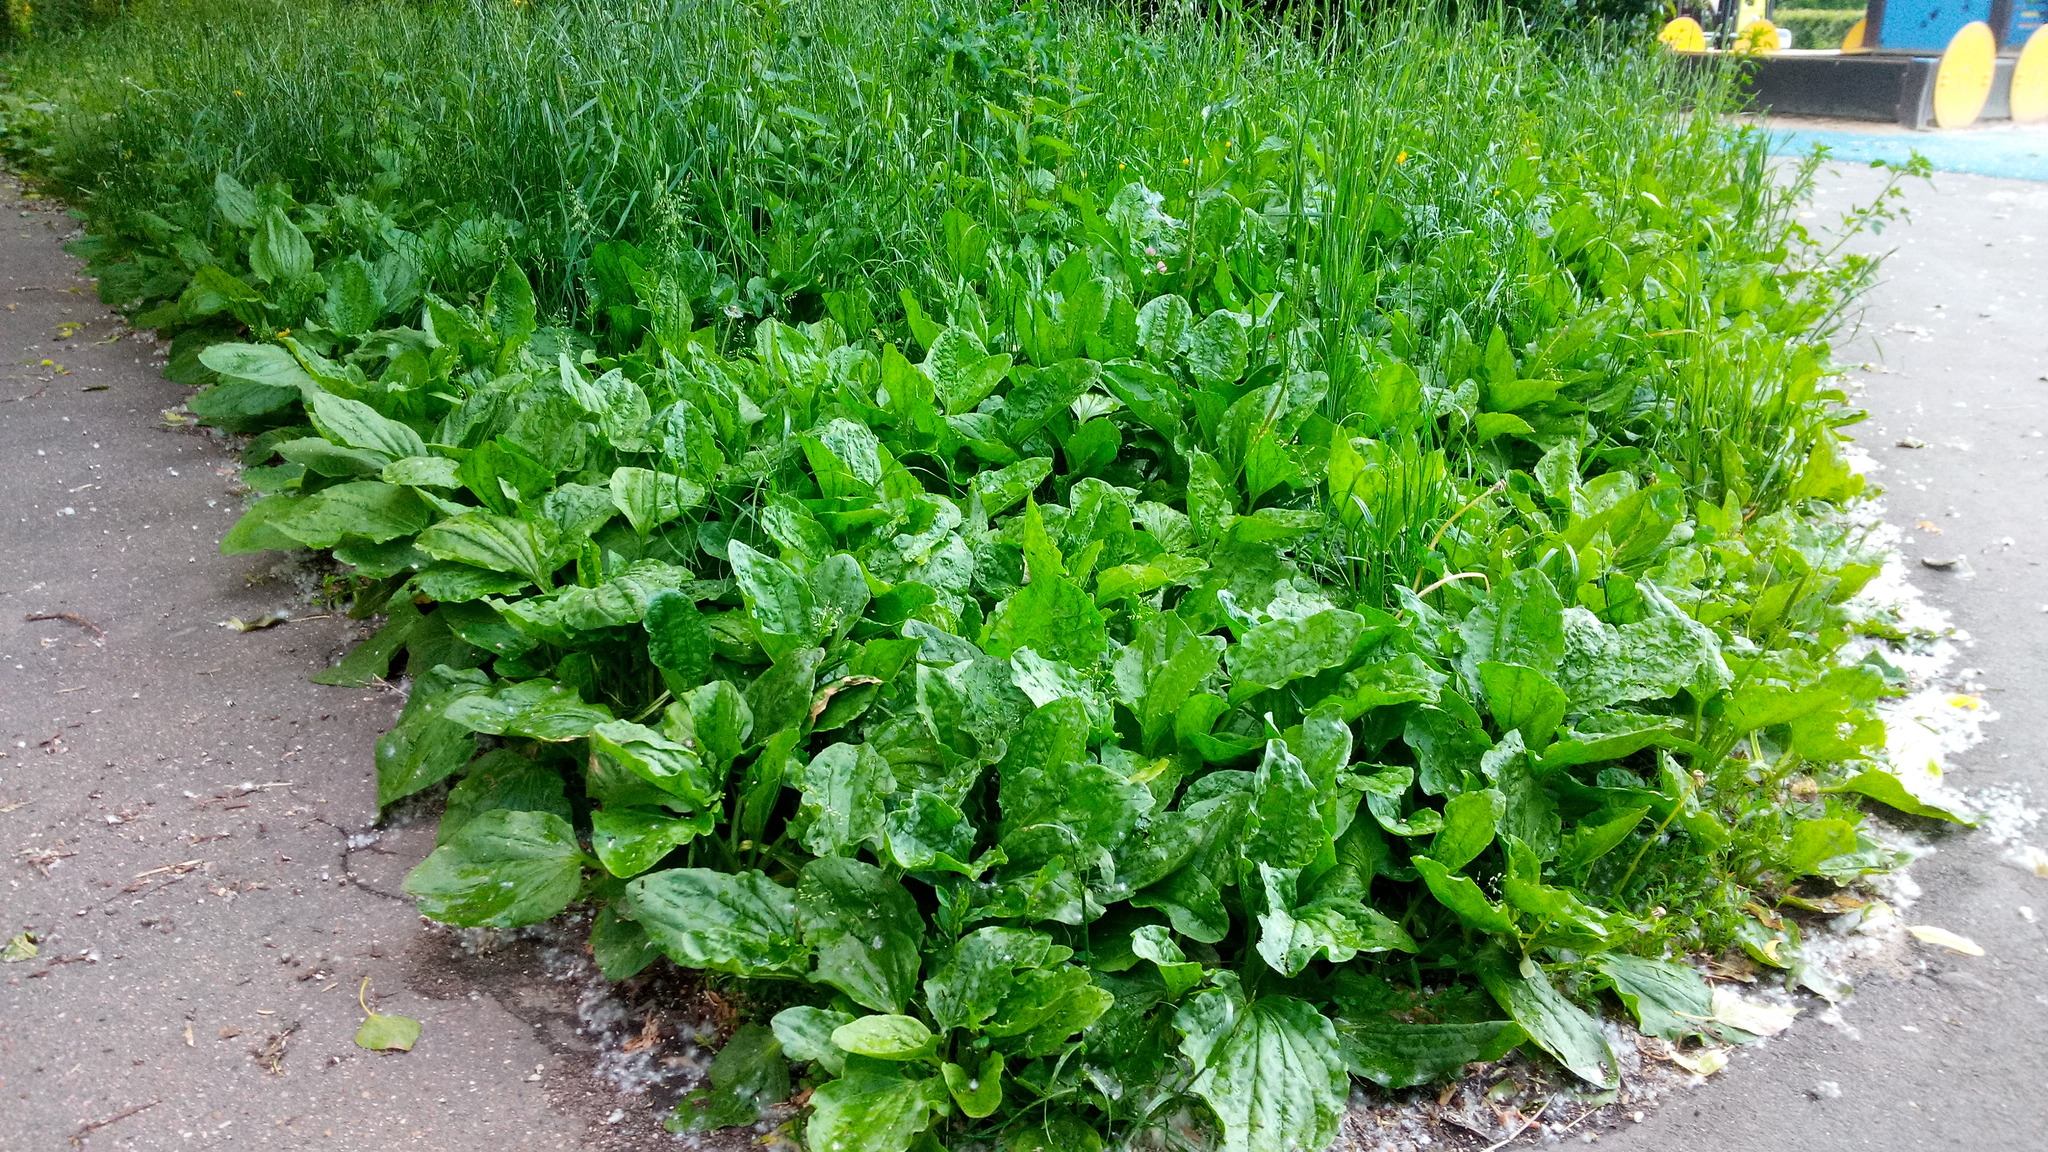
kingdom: Plantae
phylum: Tracheophyta
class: Magnoliopsida
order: Lamiales
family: Plantaginaceae
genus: Plantago
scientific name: Plantago major
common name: Common plantain
